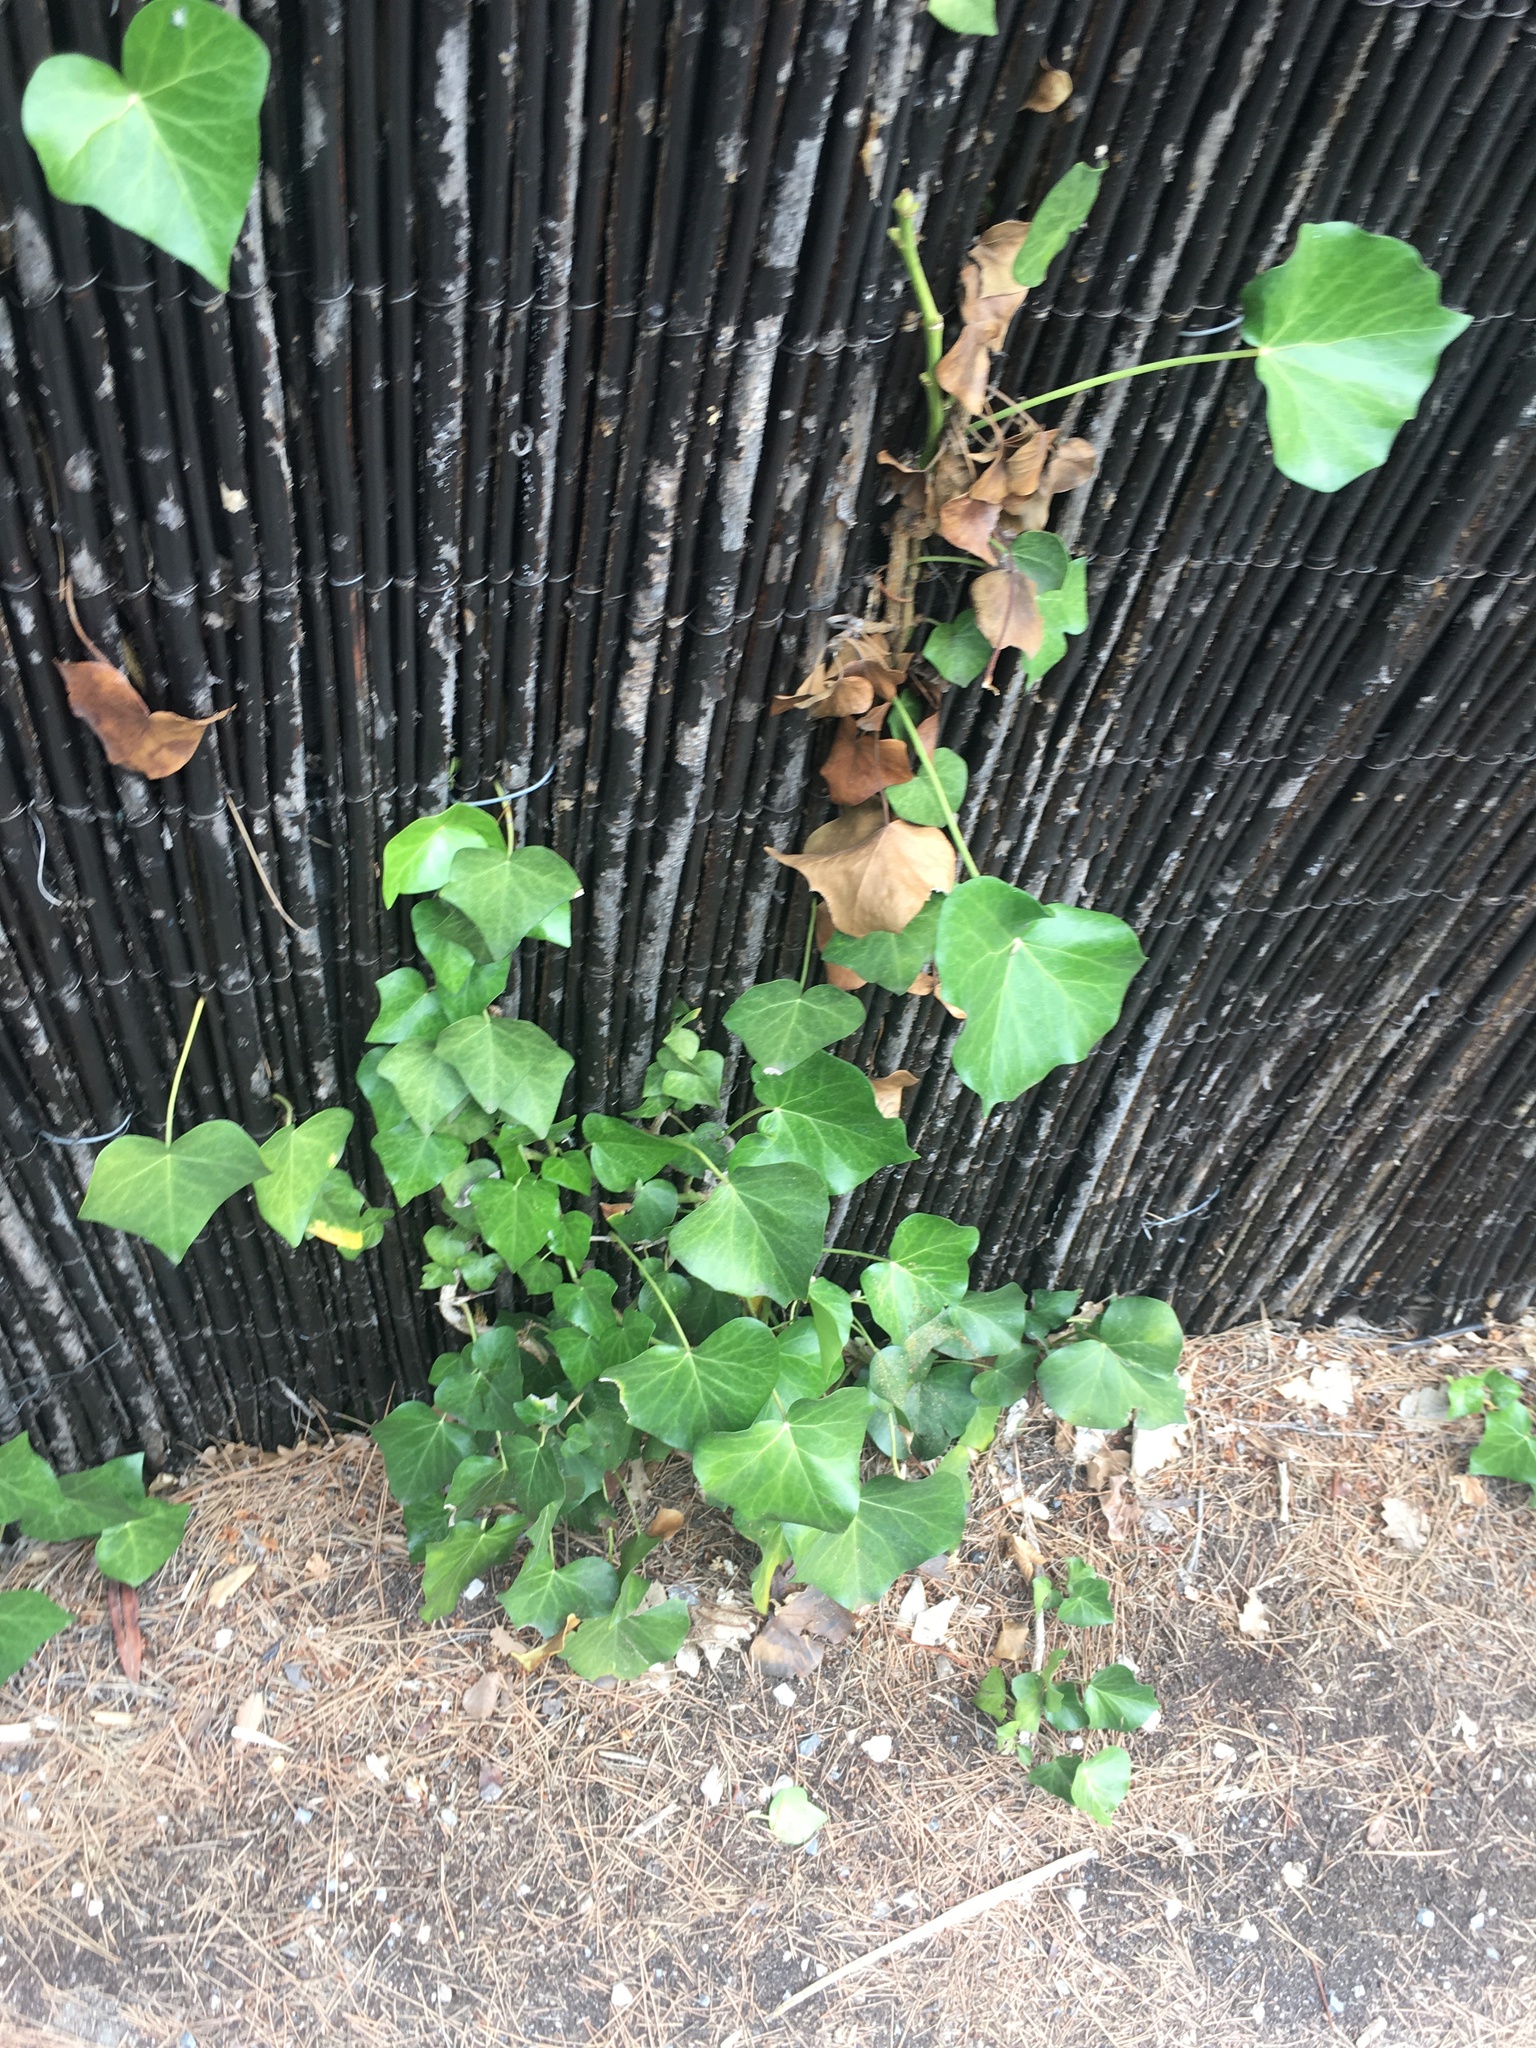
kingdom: Plantae
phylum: Tracheophyta
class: Magnoliopsida
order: Apiales
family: Araliaceae
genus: Hedera
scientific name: Hedera helix
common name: Ivy
